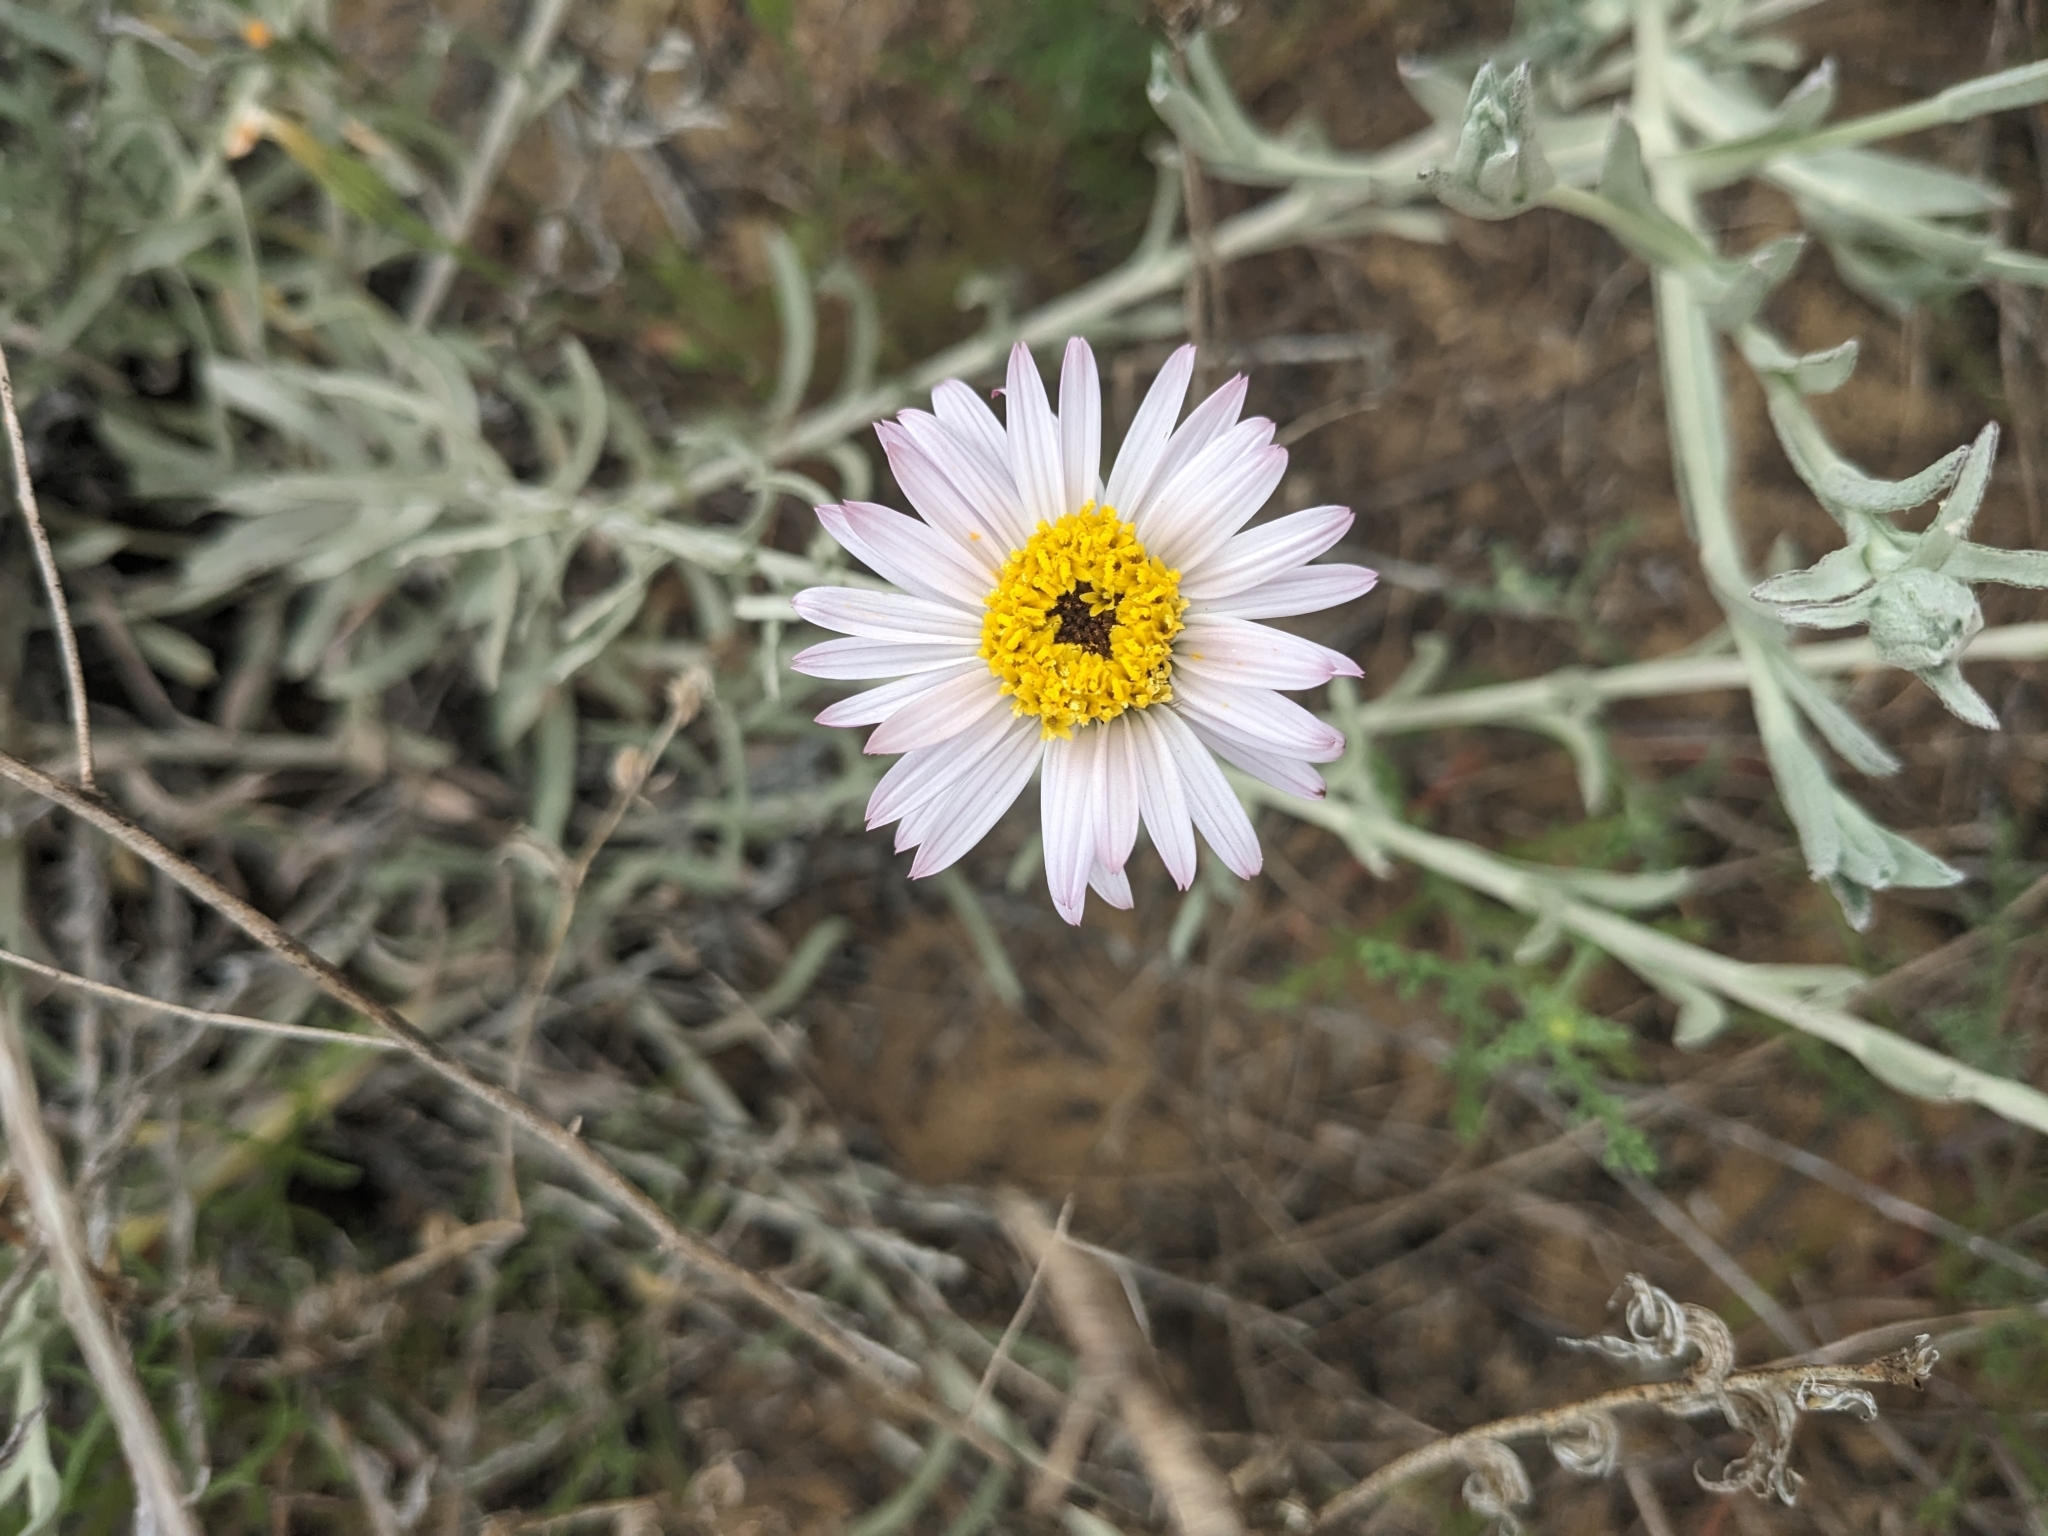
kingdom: Plantae
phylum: Tracheophyta
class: Magnoliopsida
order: Asterales
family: Asteraceae
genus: Corethrogyne
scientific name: Corethrogyne filaginifolia
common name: Sand-aster
